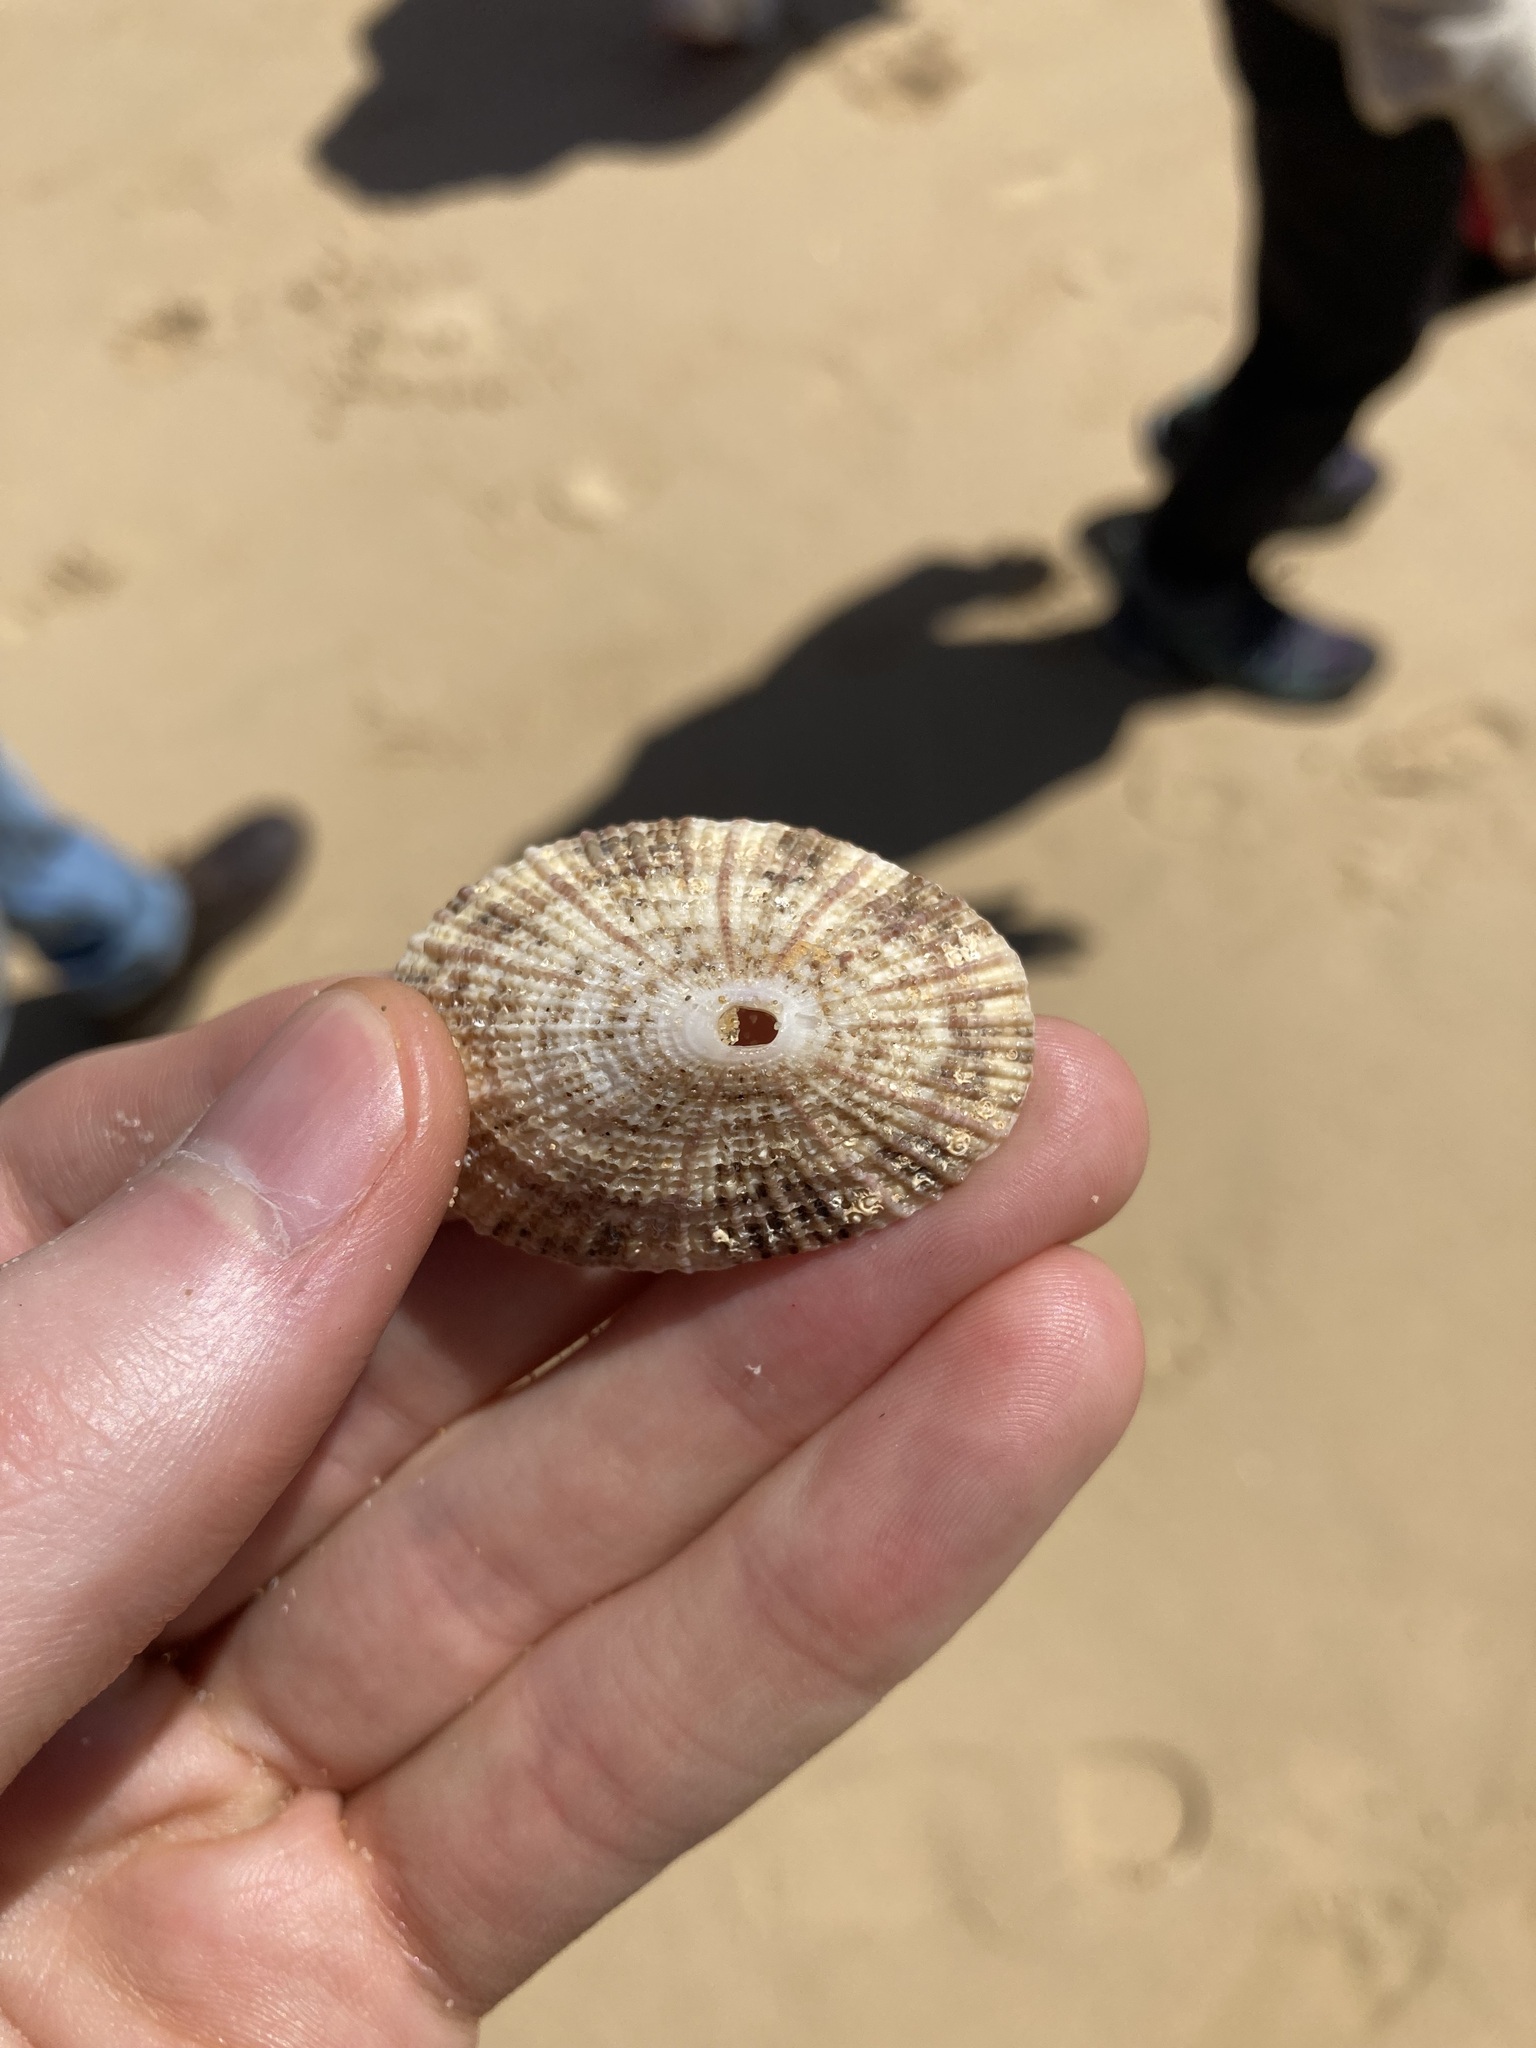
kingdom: Animalia
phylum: Mollusca
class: Gastropoda
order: Lepetellida
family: Fissurellidae
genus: Diodora
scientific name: Diodora lineata
